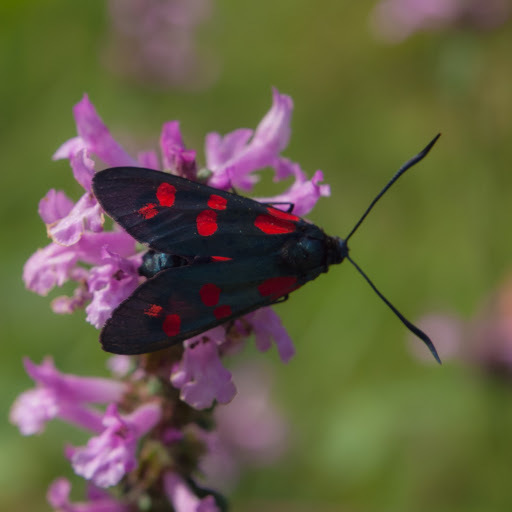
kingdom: Animalia
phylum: Arthropoda
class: Insecta
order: Lepidoptera
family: Zygaenidae
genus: Zygaena
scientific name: Zygaena filipendulae
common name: Six-spot burnet
